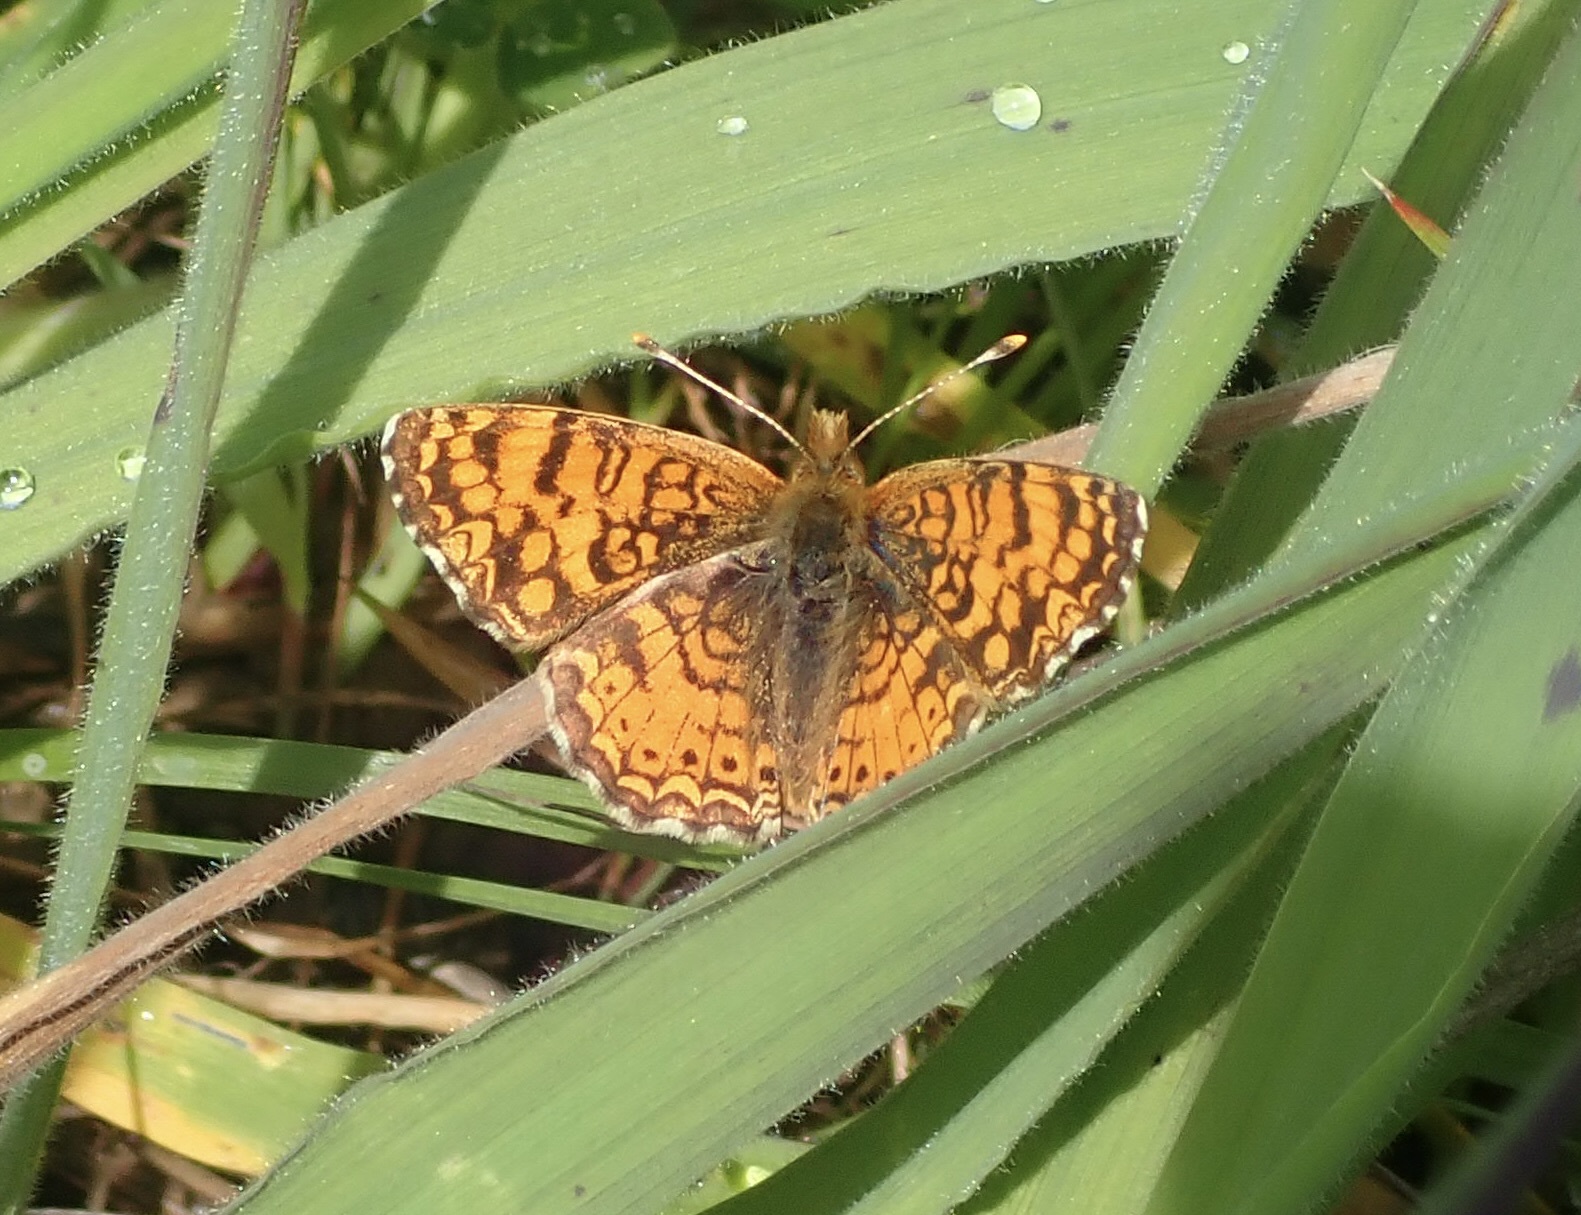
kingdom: Animalia
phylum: Arthropoda
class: Insecta
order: Lepidoptera
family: Nymphalidae
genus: Eresia
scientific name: Eresia aveyrona
